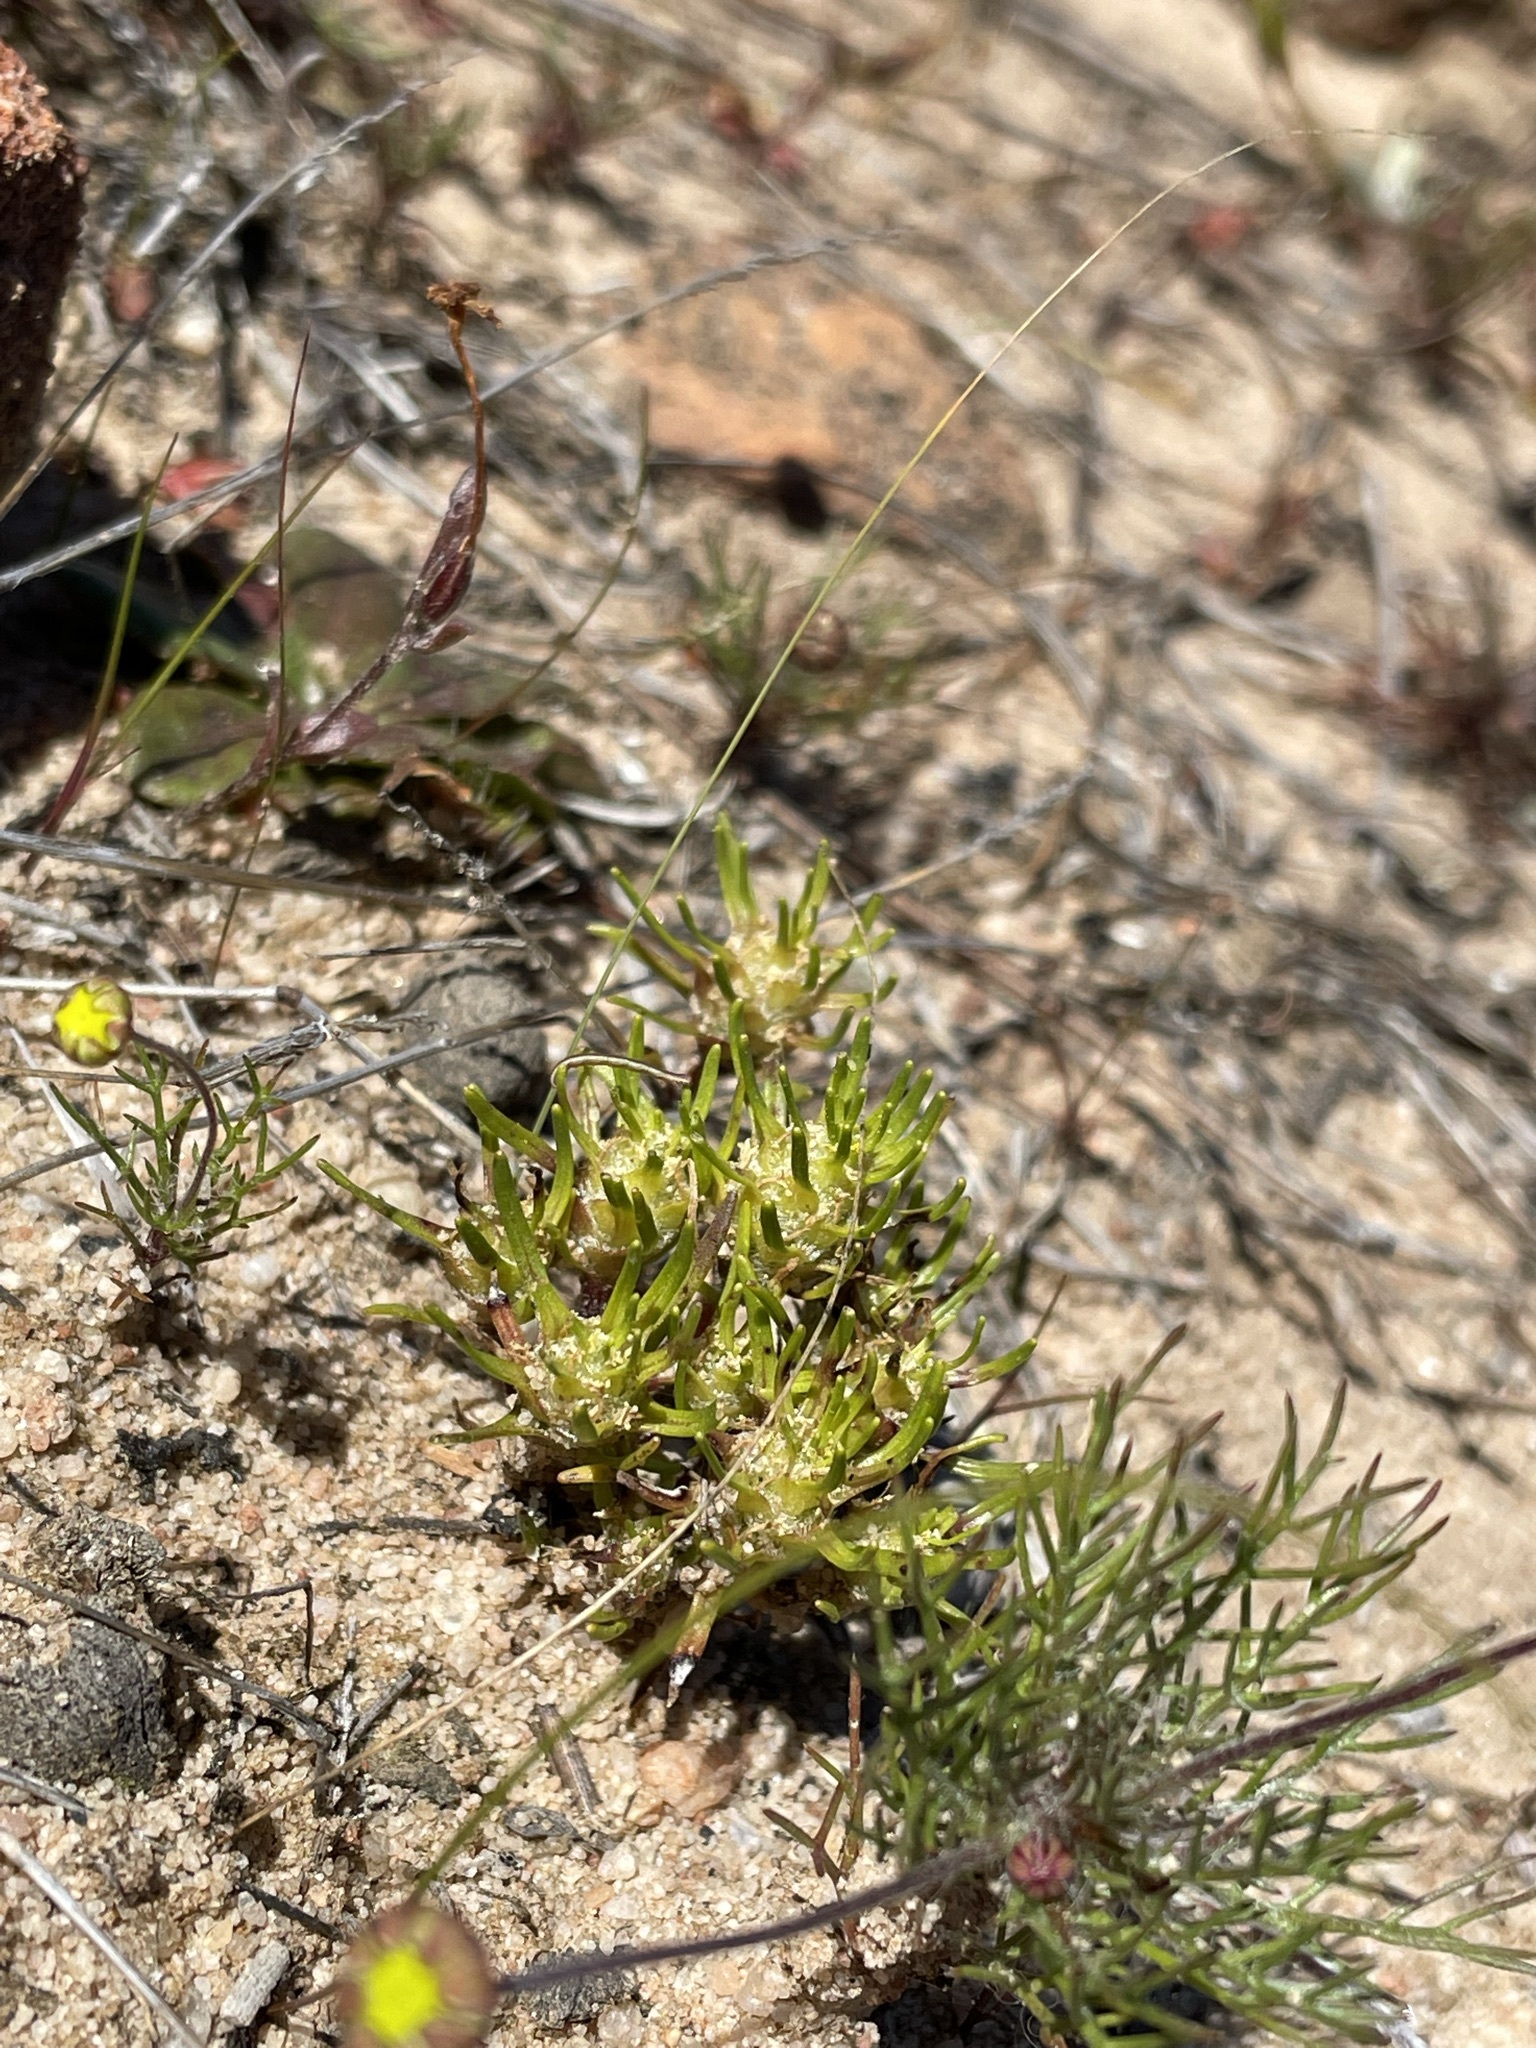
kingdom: Plantae
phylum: Tracheophyta
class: Magnoliopsida
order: Lamiales
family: Scrophulariaceae
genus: Dischisma
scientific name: Dischisma capitatum
